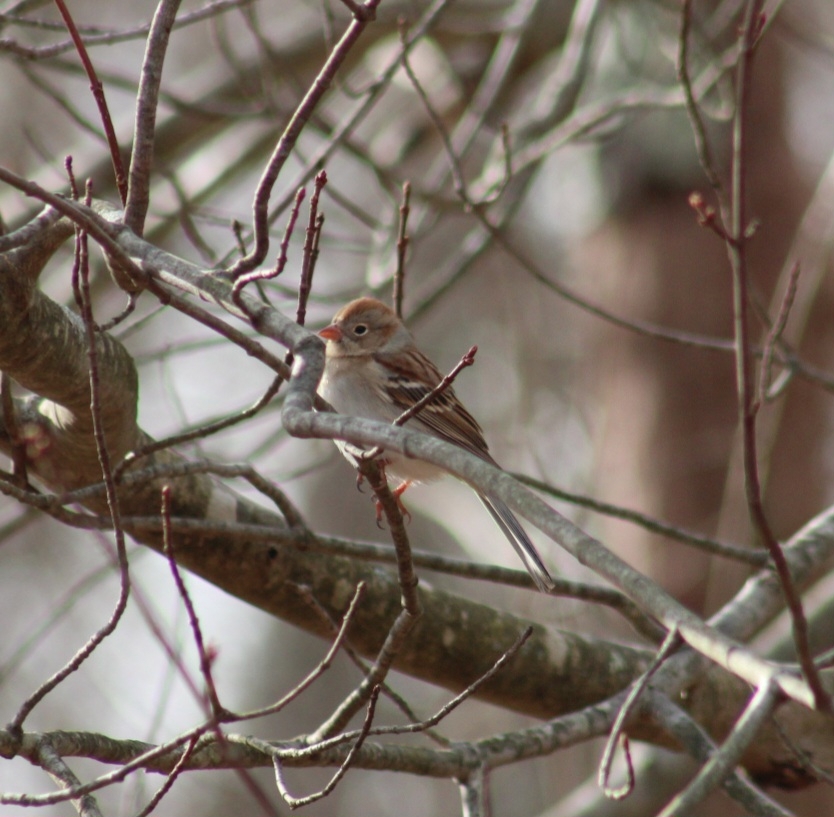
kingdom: Animalia
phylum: Chordata
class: Aves
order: Passeriformes
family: Passerellidae
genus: Spizella
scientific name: Spizella pusilla
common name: Field sparrow
